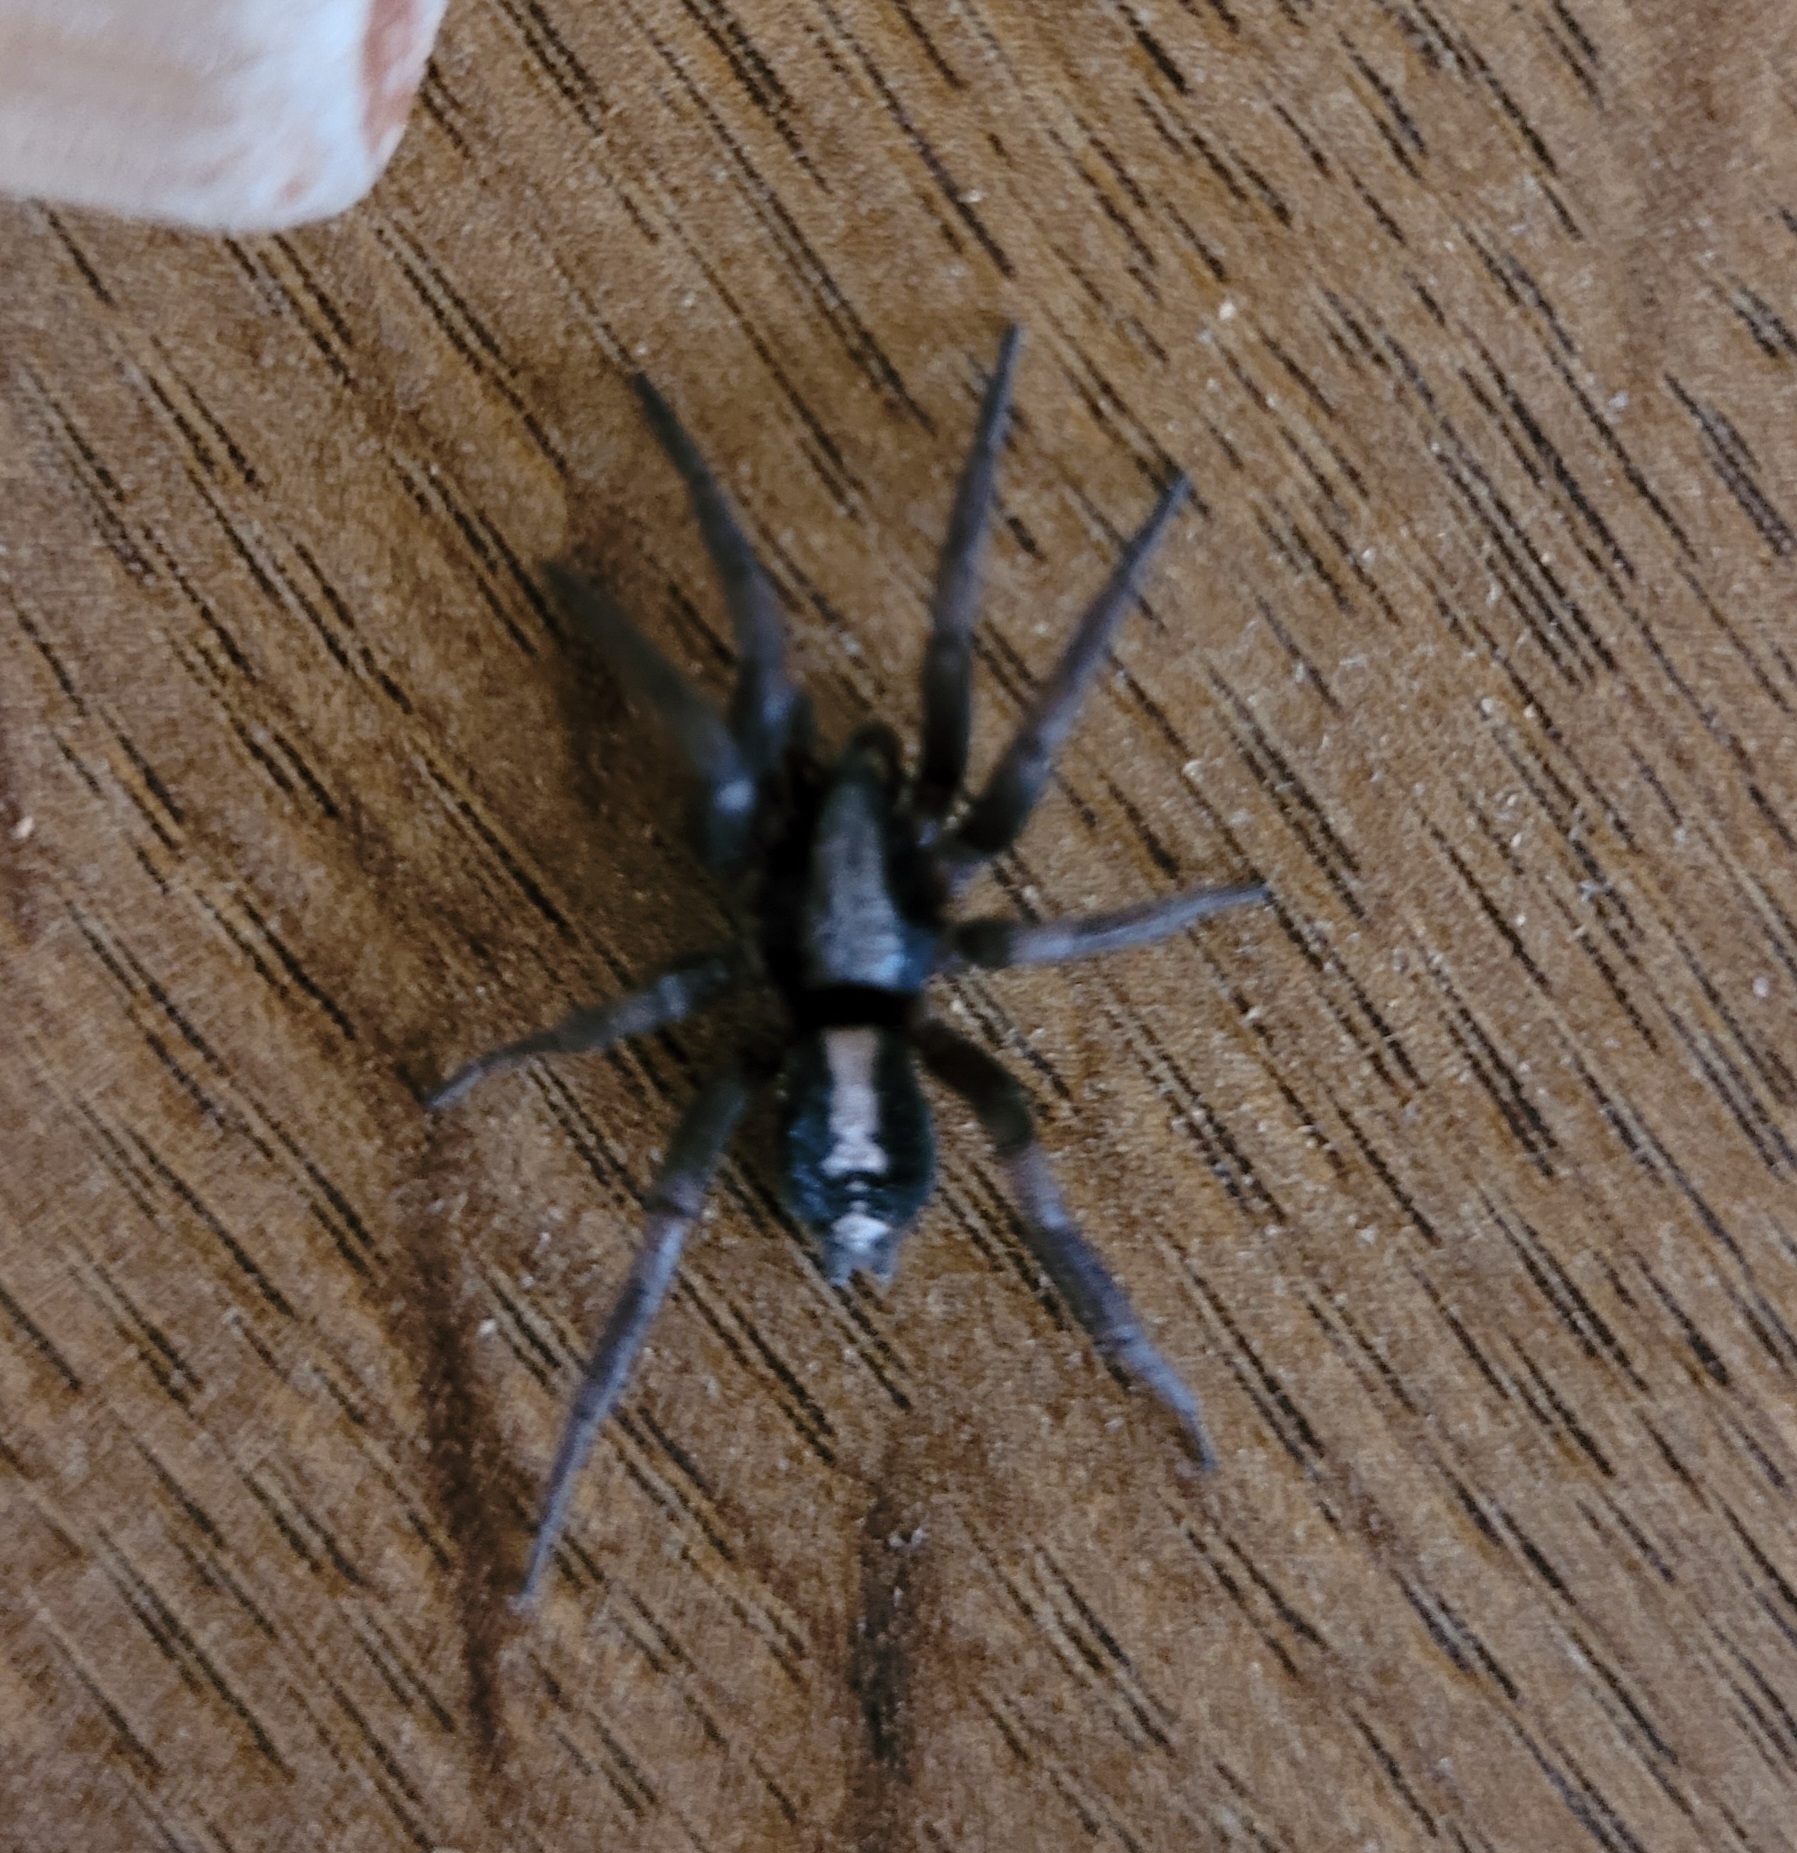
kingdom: Animalia
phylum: Arthropoda
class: Arachnida
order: Araneae
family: Gnaphosidae
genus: Herpyllus
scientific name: Herpyllus ecclesiasticus
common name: Eastern parson spider
